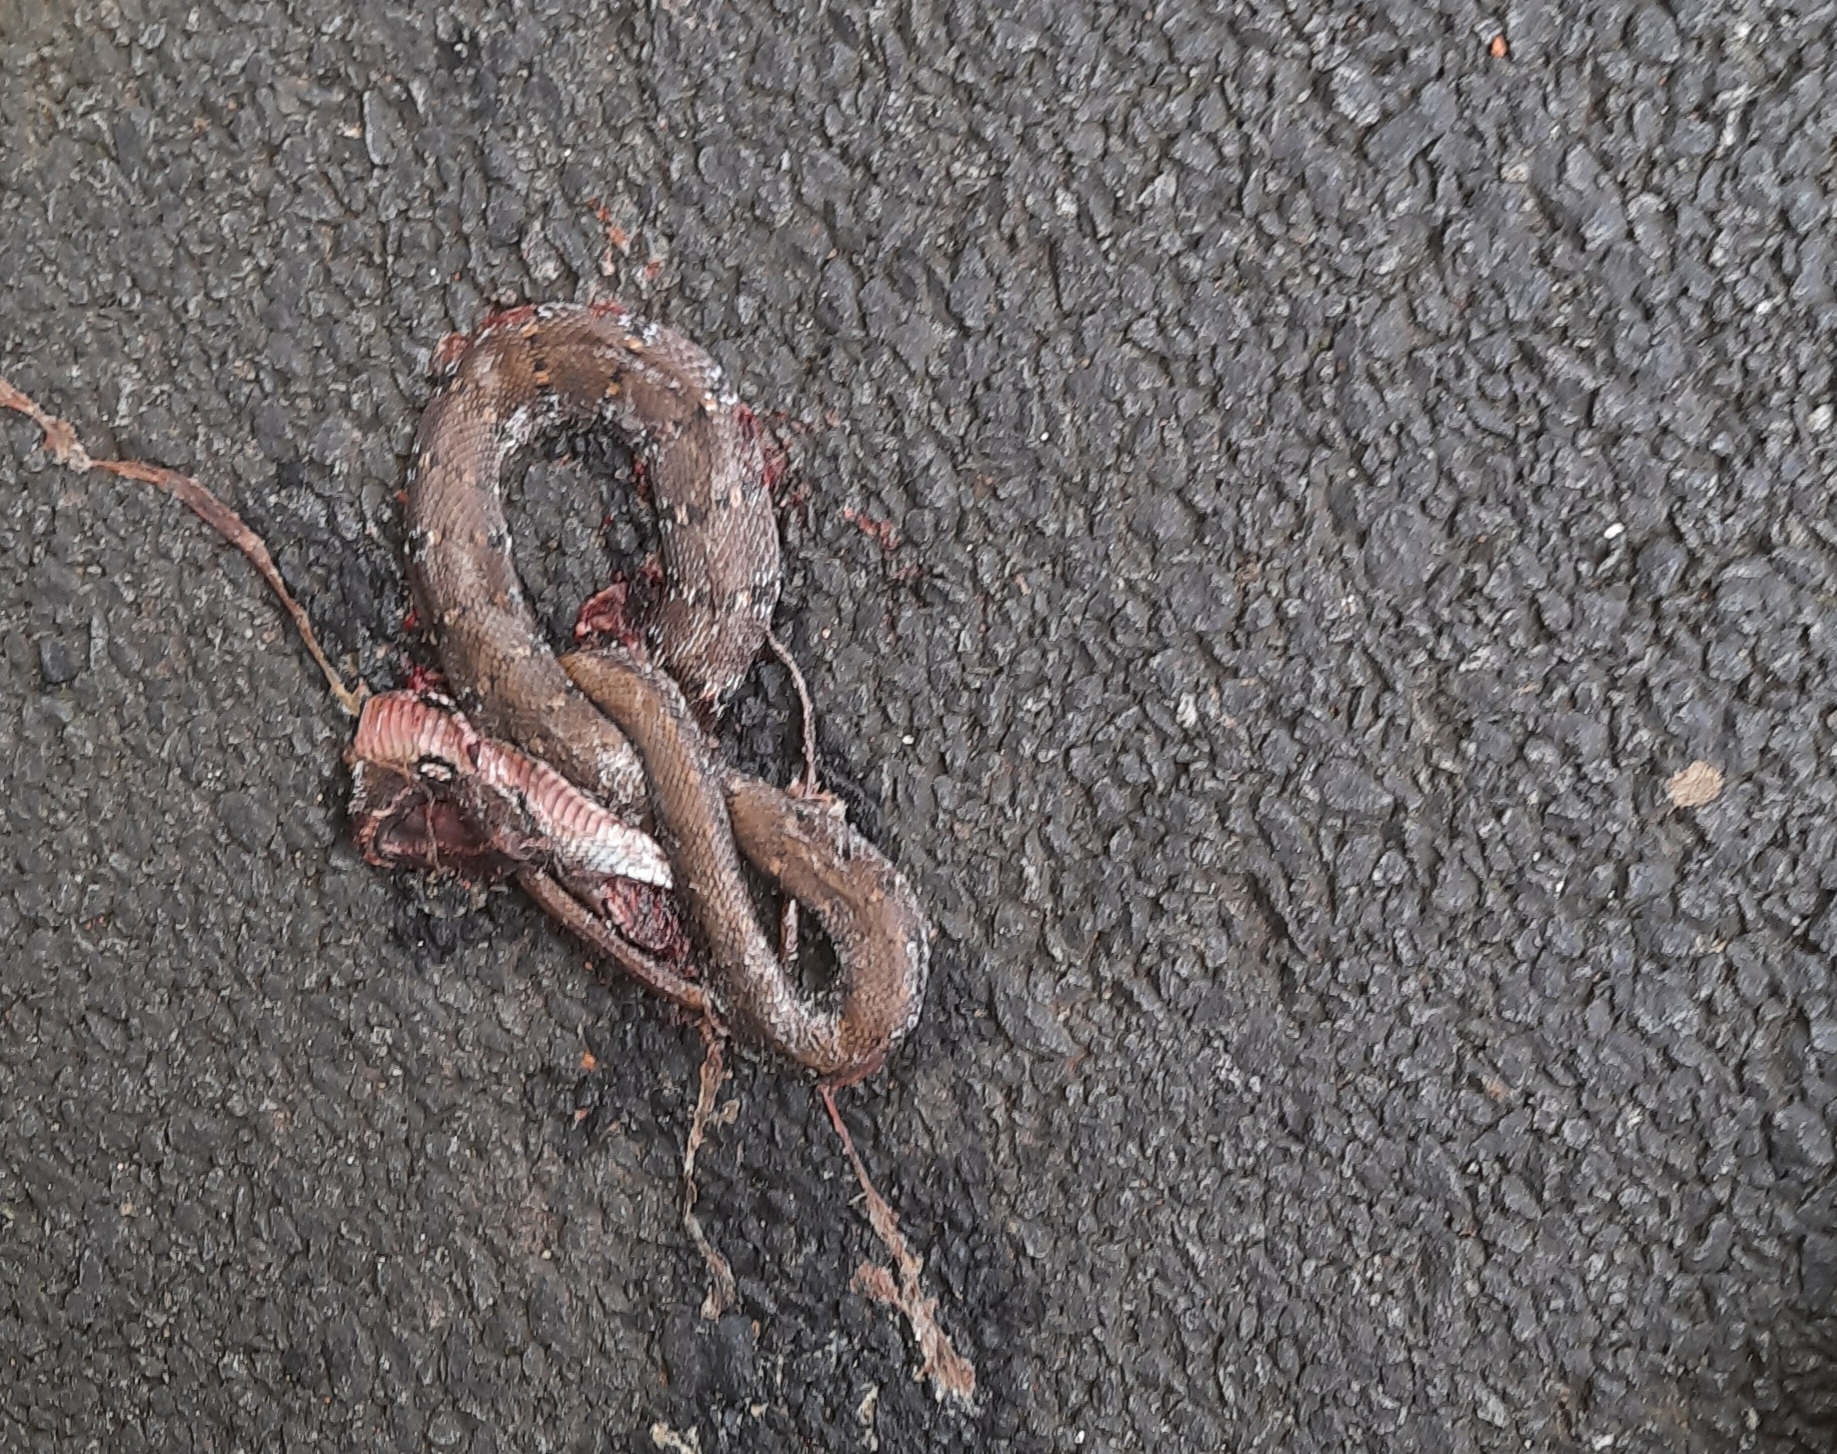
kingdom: Animalia
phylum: Chordata
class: Squamata
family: Colubridae
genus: Coelognathus
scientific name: Coelognathus helena
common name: Trinket snake
